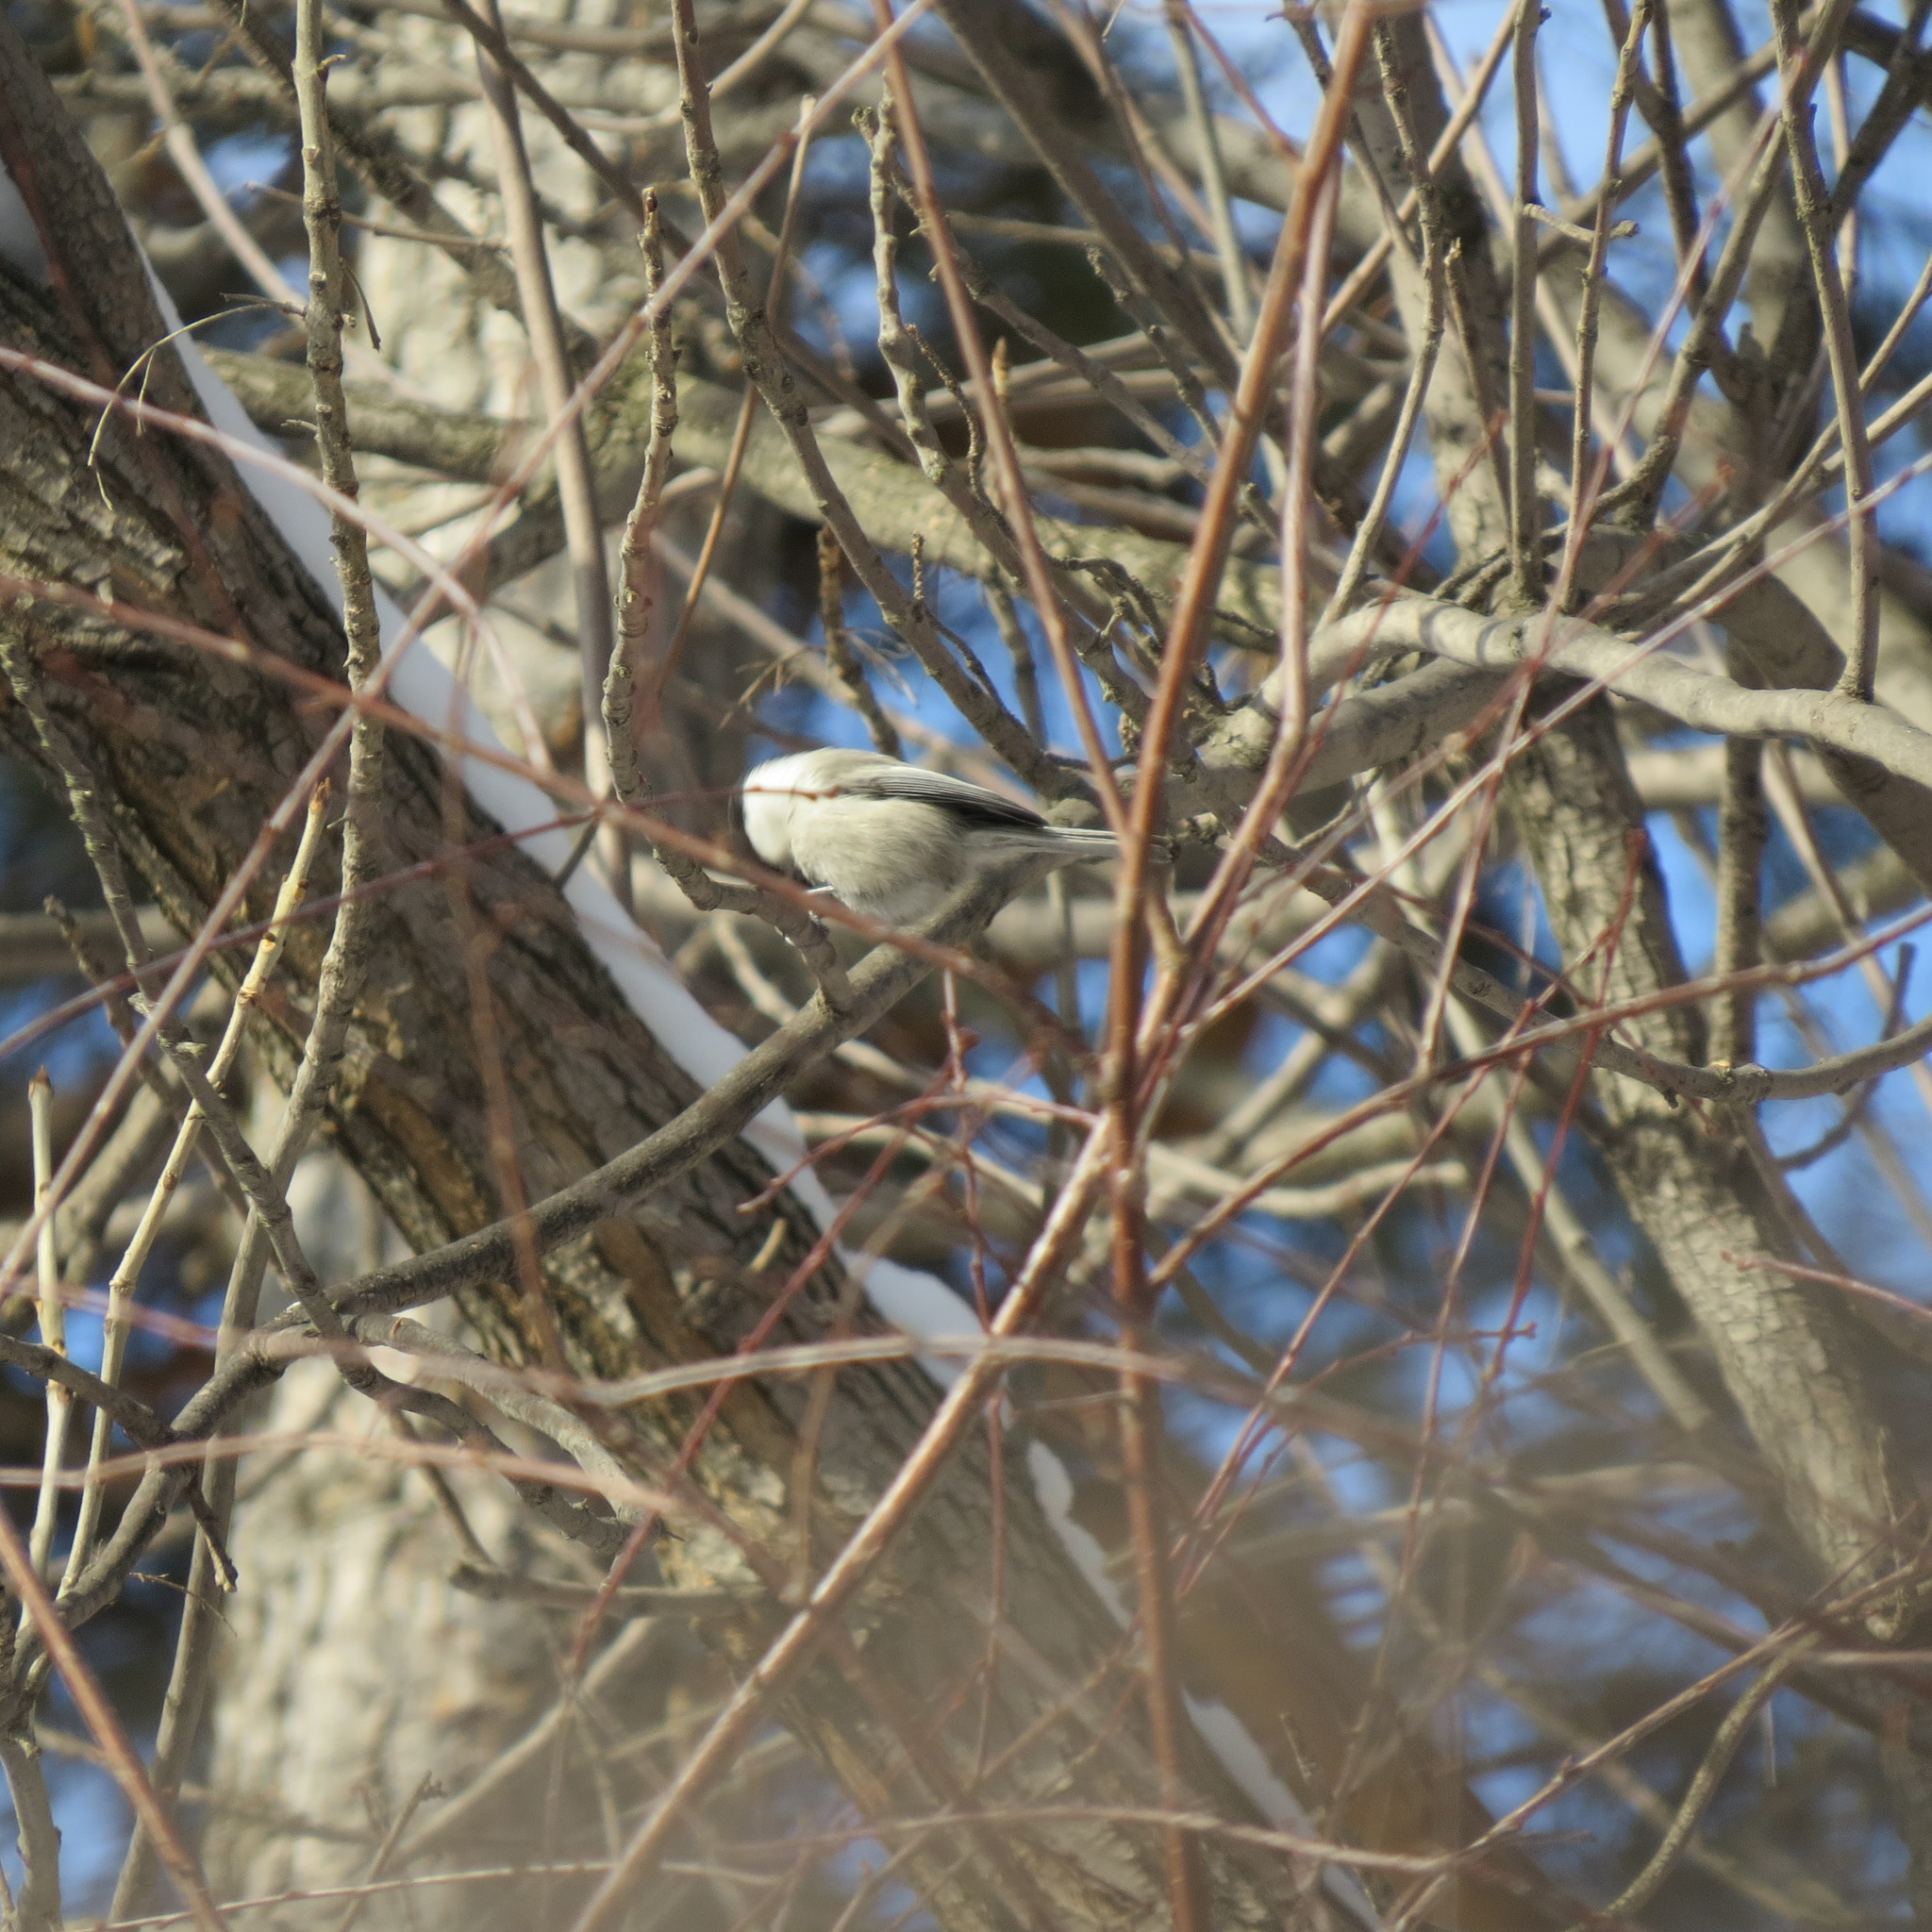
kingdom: Animalia
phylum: Chordata
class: Aves
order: Passeriformes
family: Paridae
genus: Poecile
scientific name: Poecile montanus
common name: Willow tit
